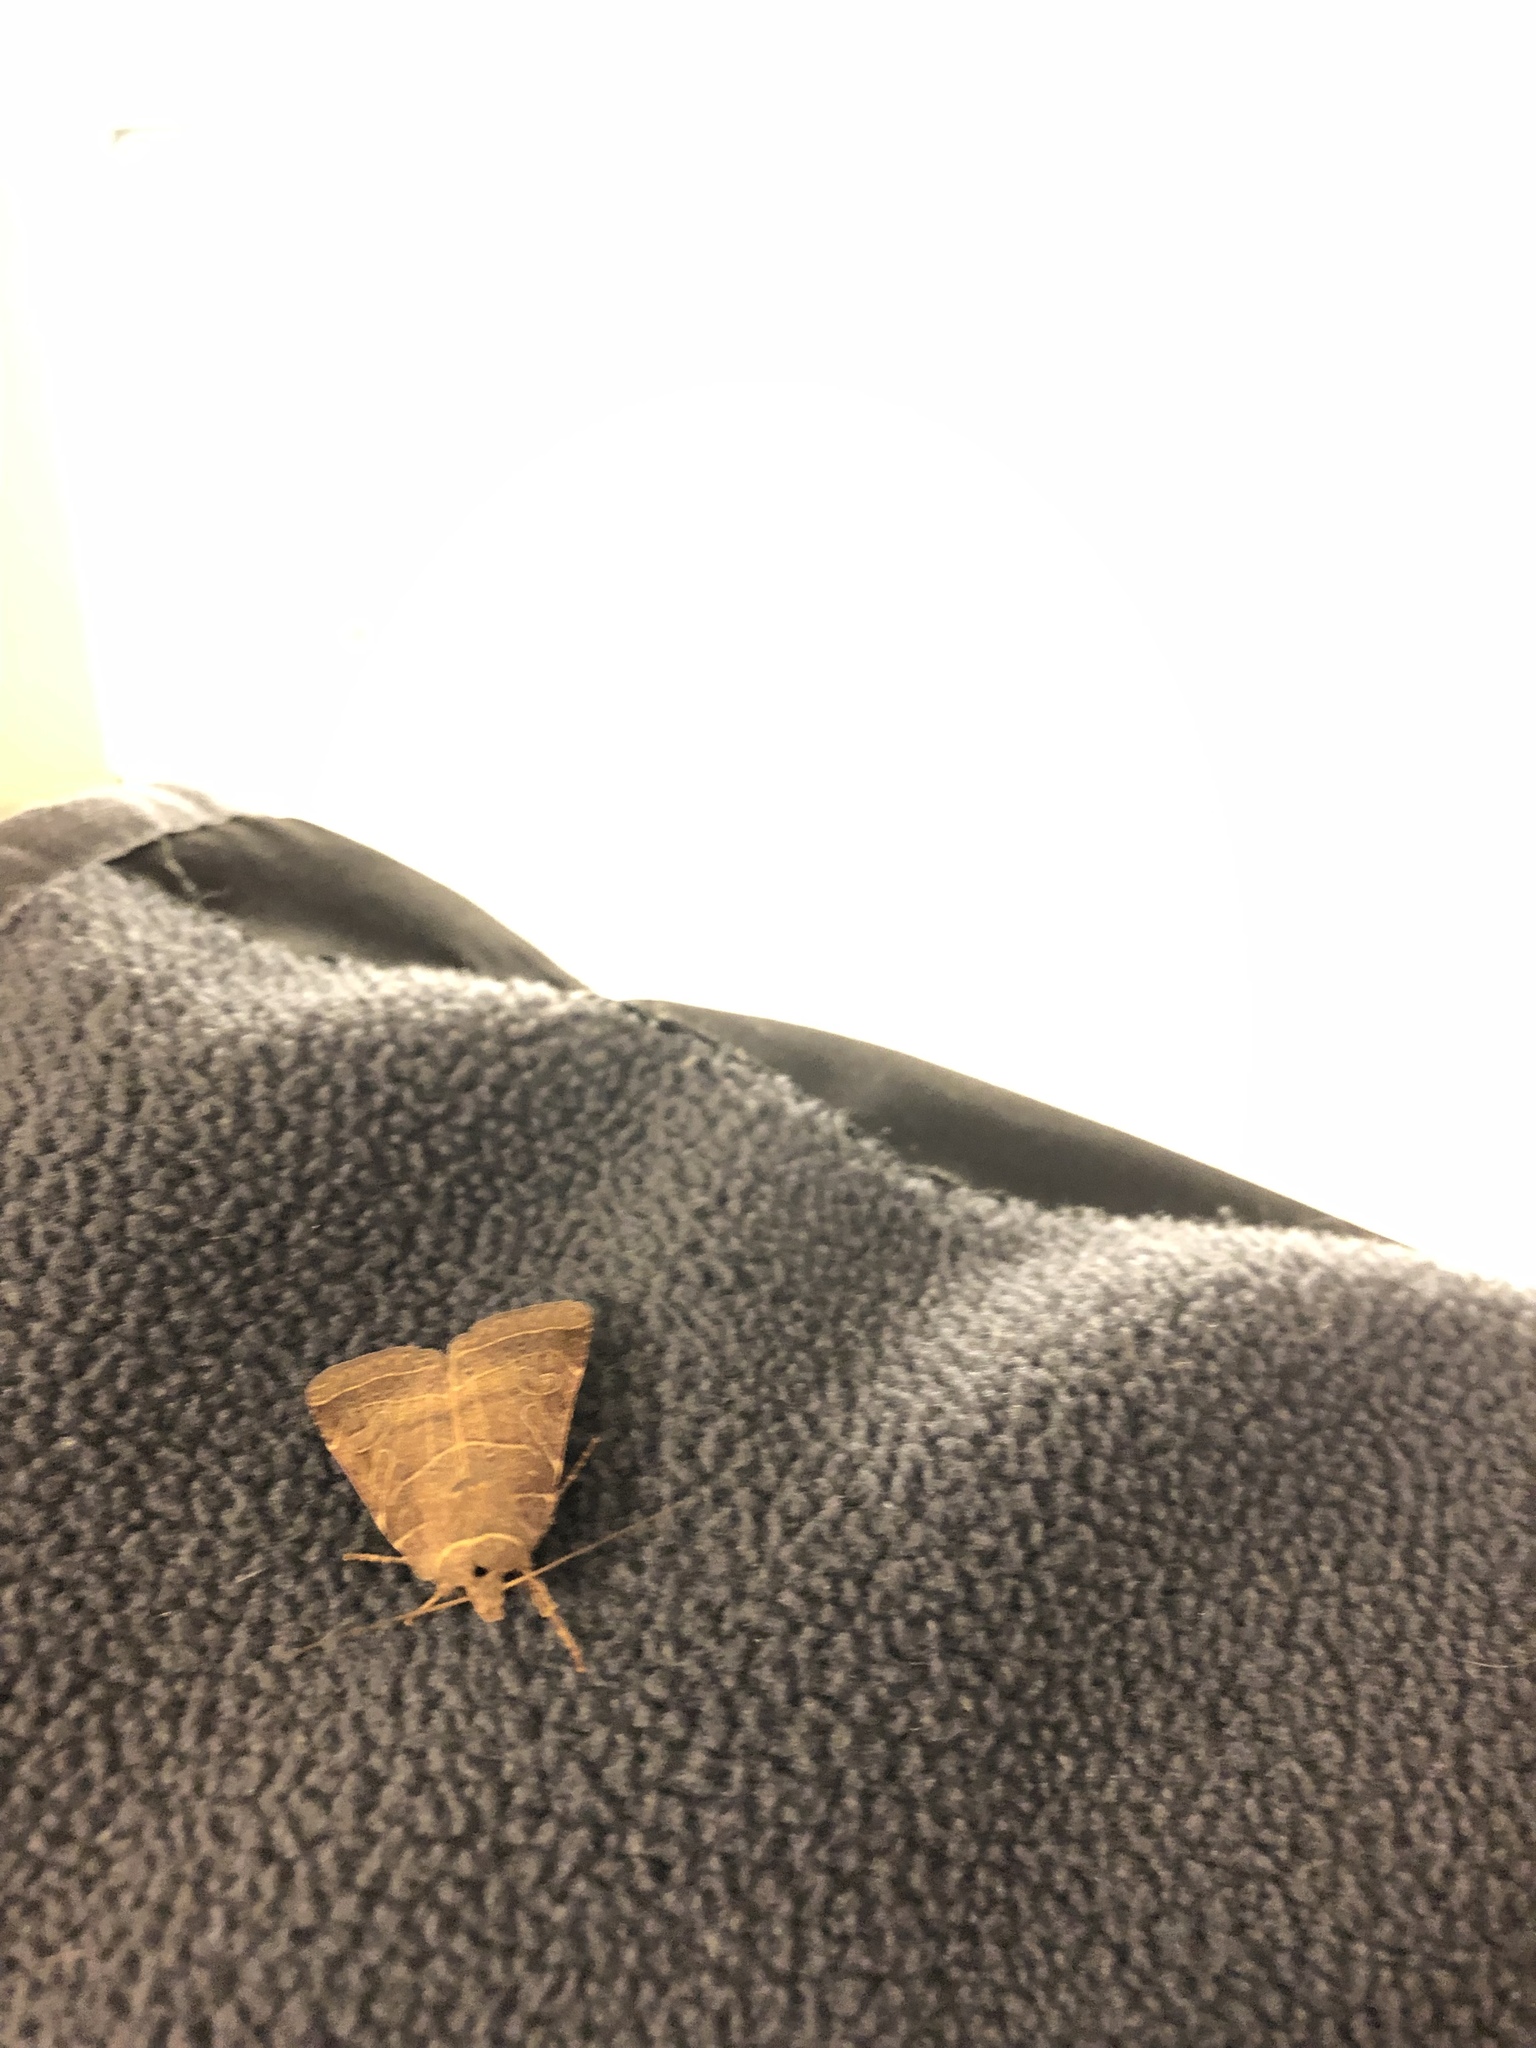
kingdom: Animalia
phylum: Arthropoda
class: Insecta
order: Lepidoptera
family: Noctuidae
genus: Orthodes
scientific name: Orthodes majuscula
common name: Rustic quaker
